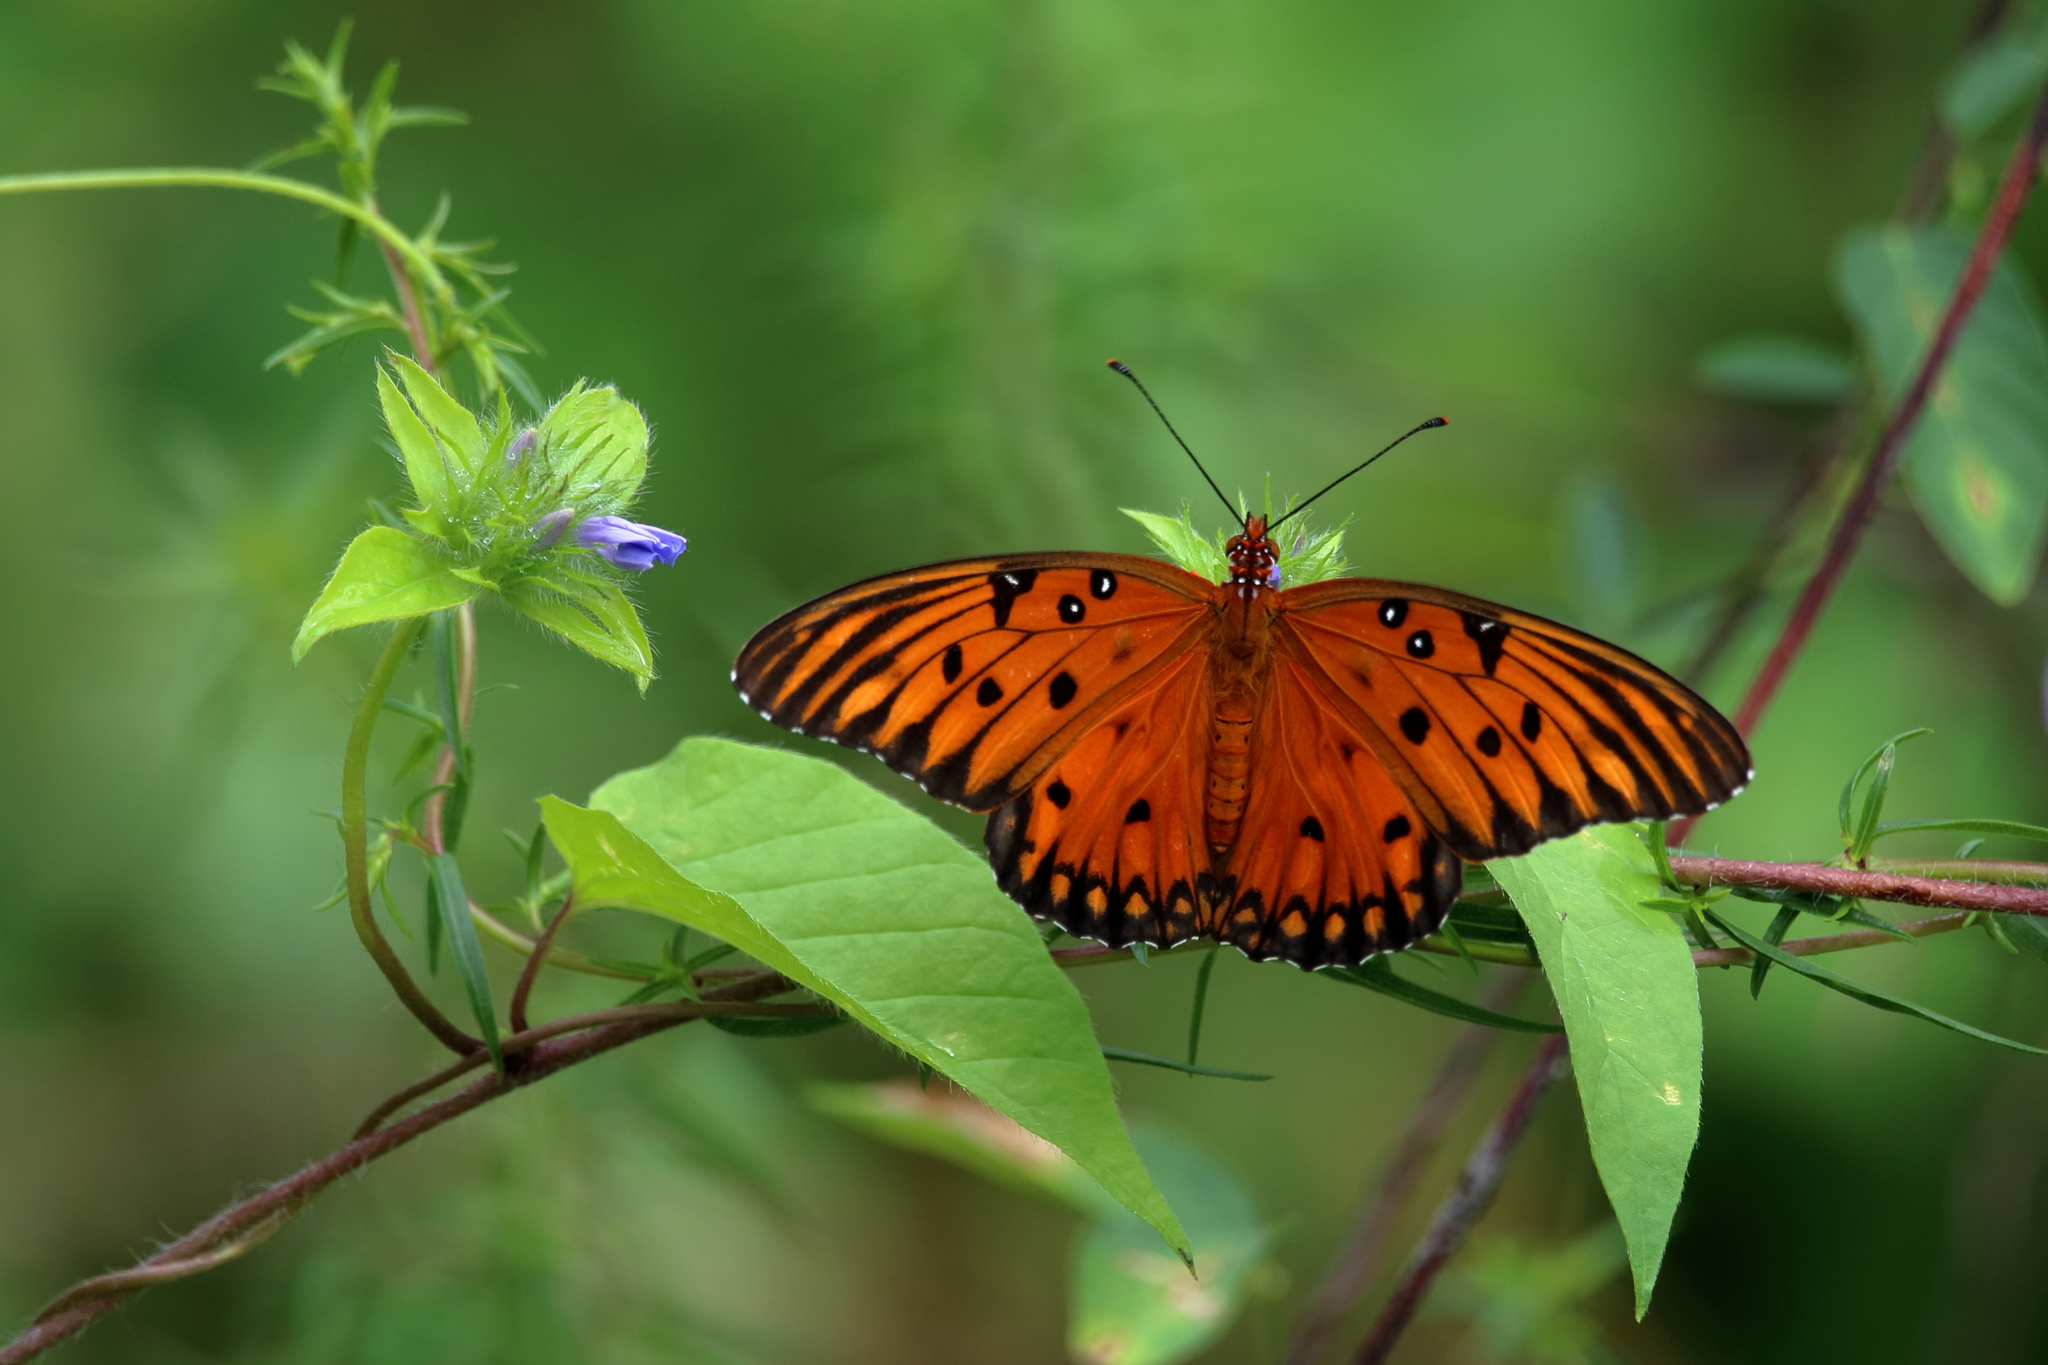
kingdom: Animalia
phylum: Arthropoda
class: Insecta
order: Lepidoptera
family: Nymphalidae
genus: Dione
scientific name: Dione vanillae
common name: Gulf fritillary
